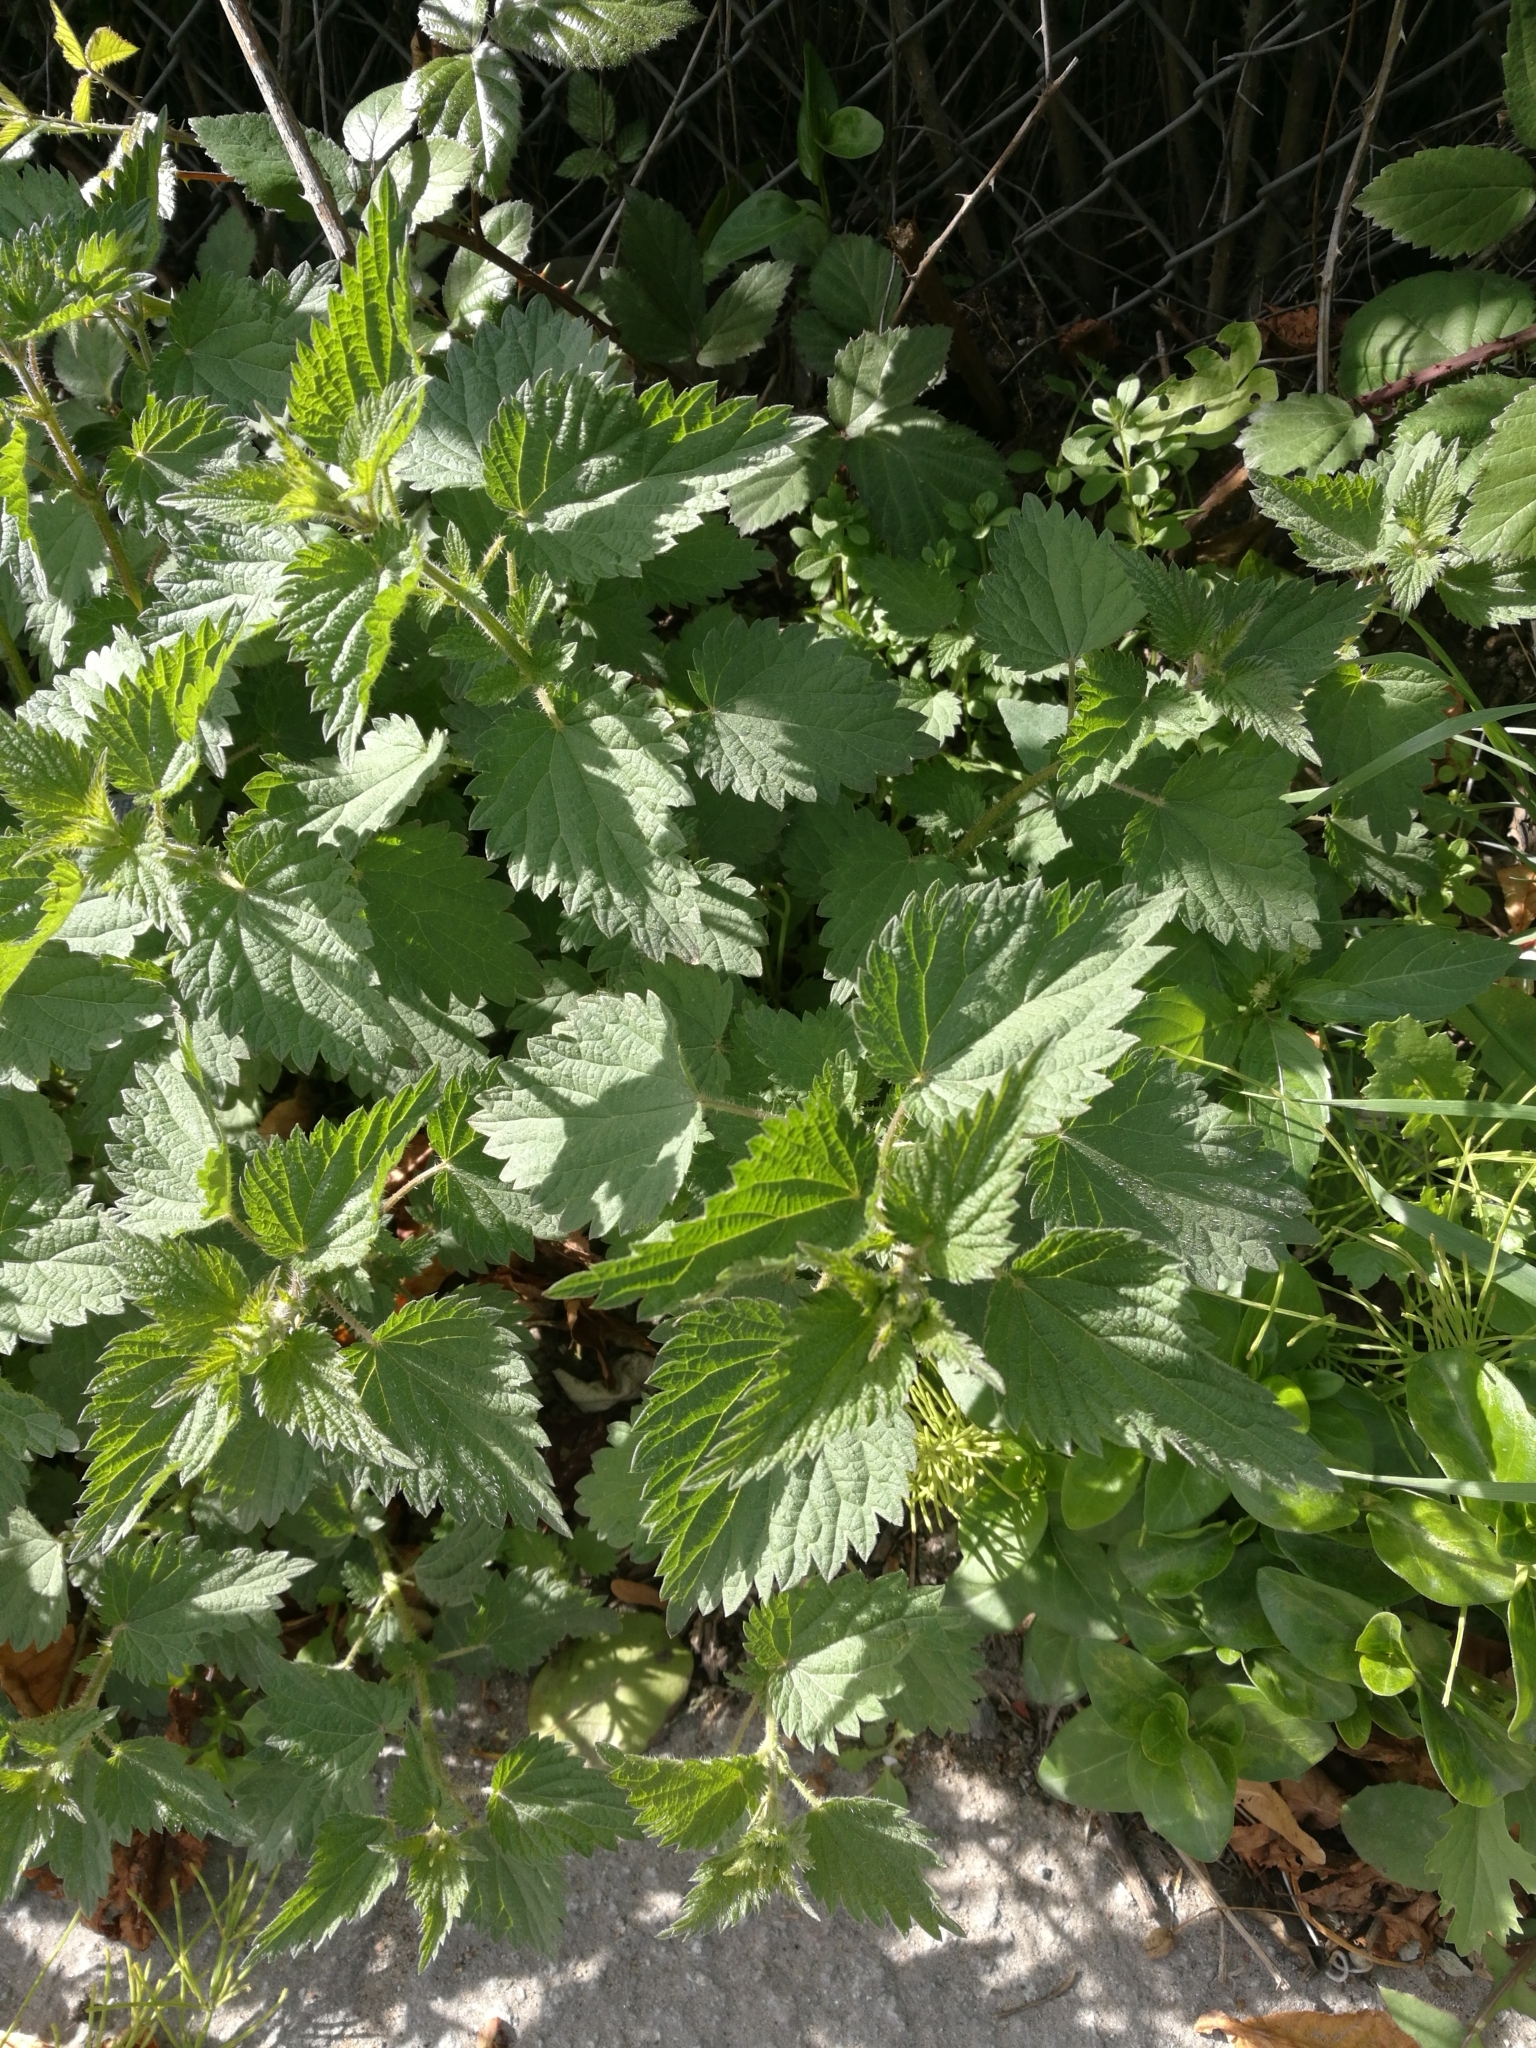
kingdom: Plantae
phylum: Tracheophyta
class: Magnoliopsida
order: Rosales
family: Urticaceae
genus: Urtica
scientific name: Urtica dioica
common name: Common nettle
